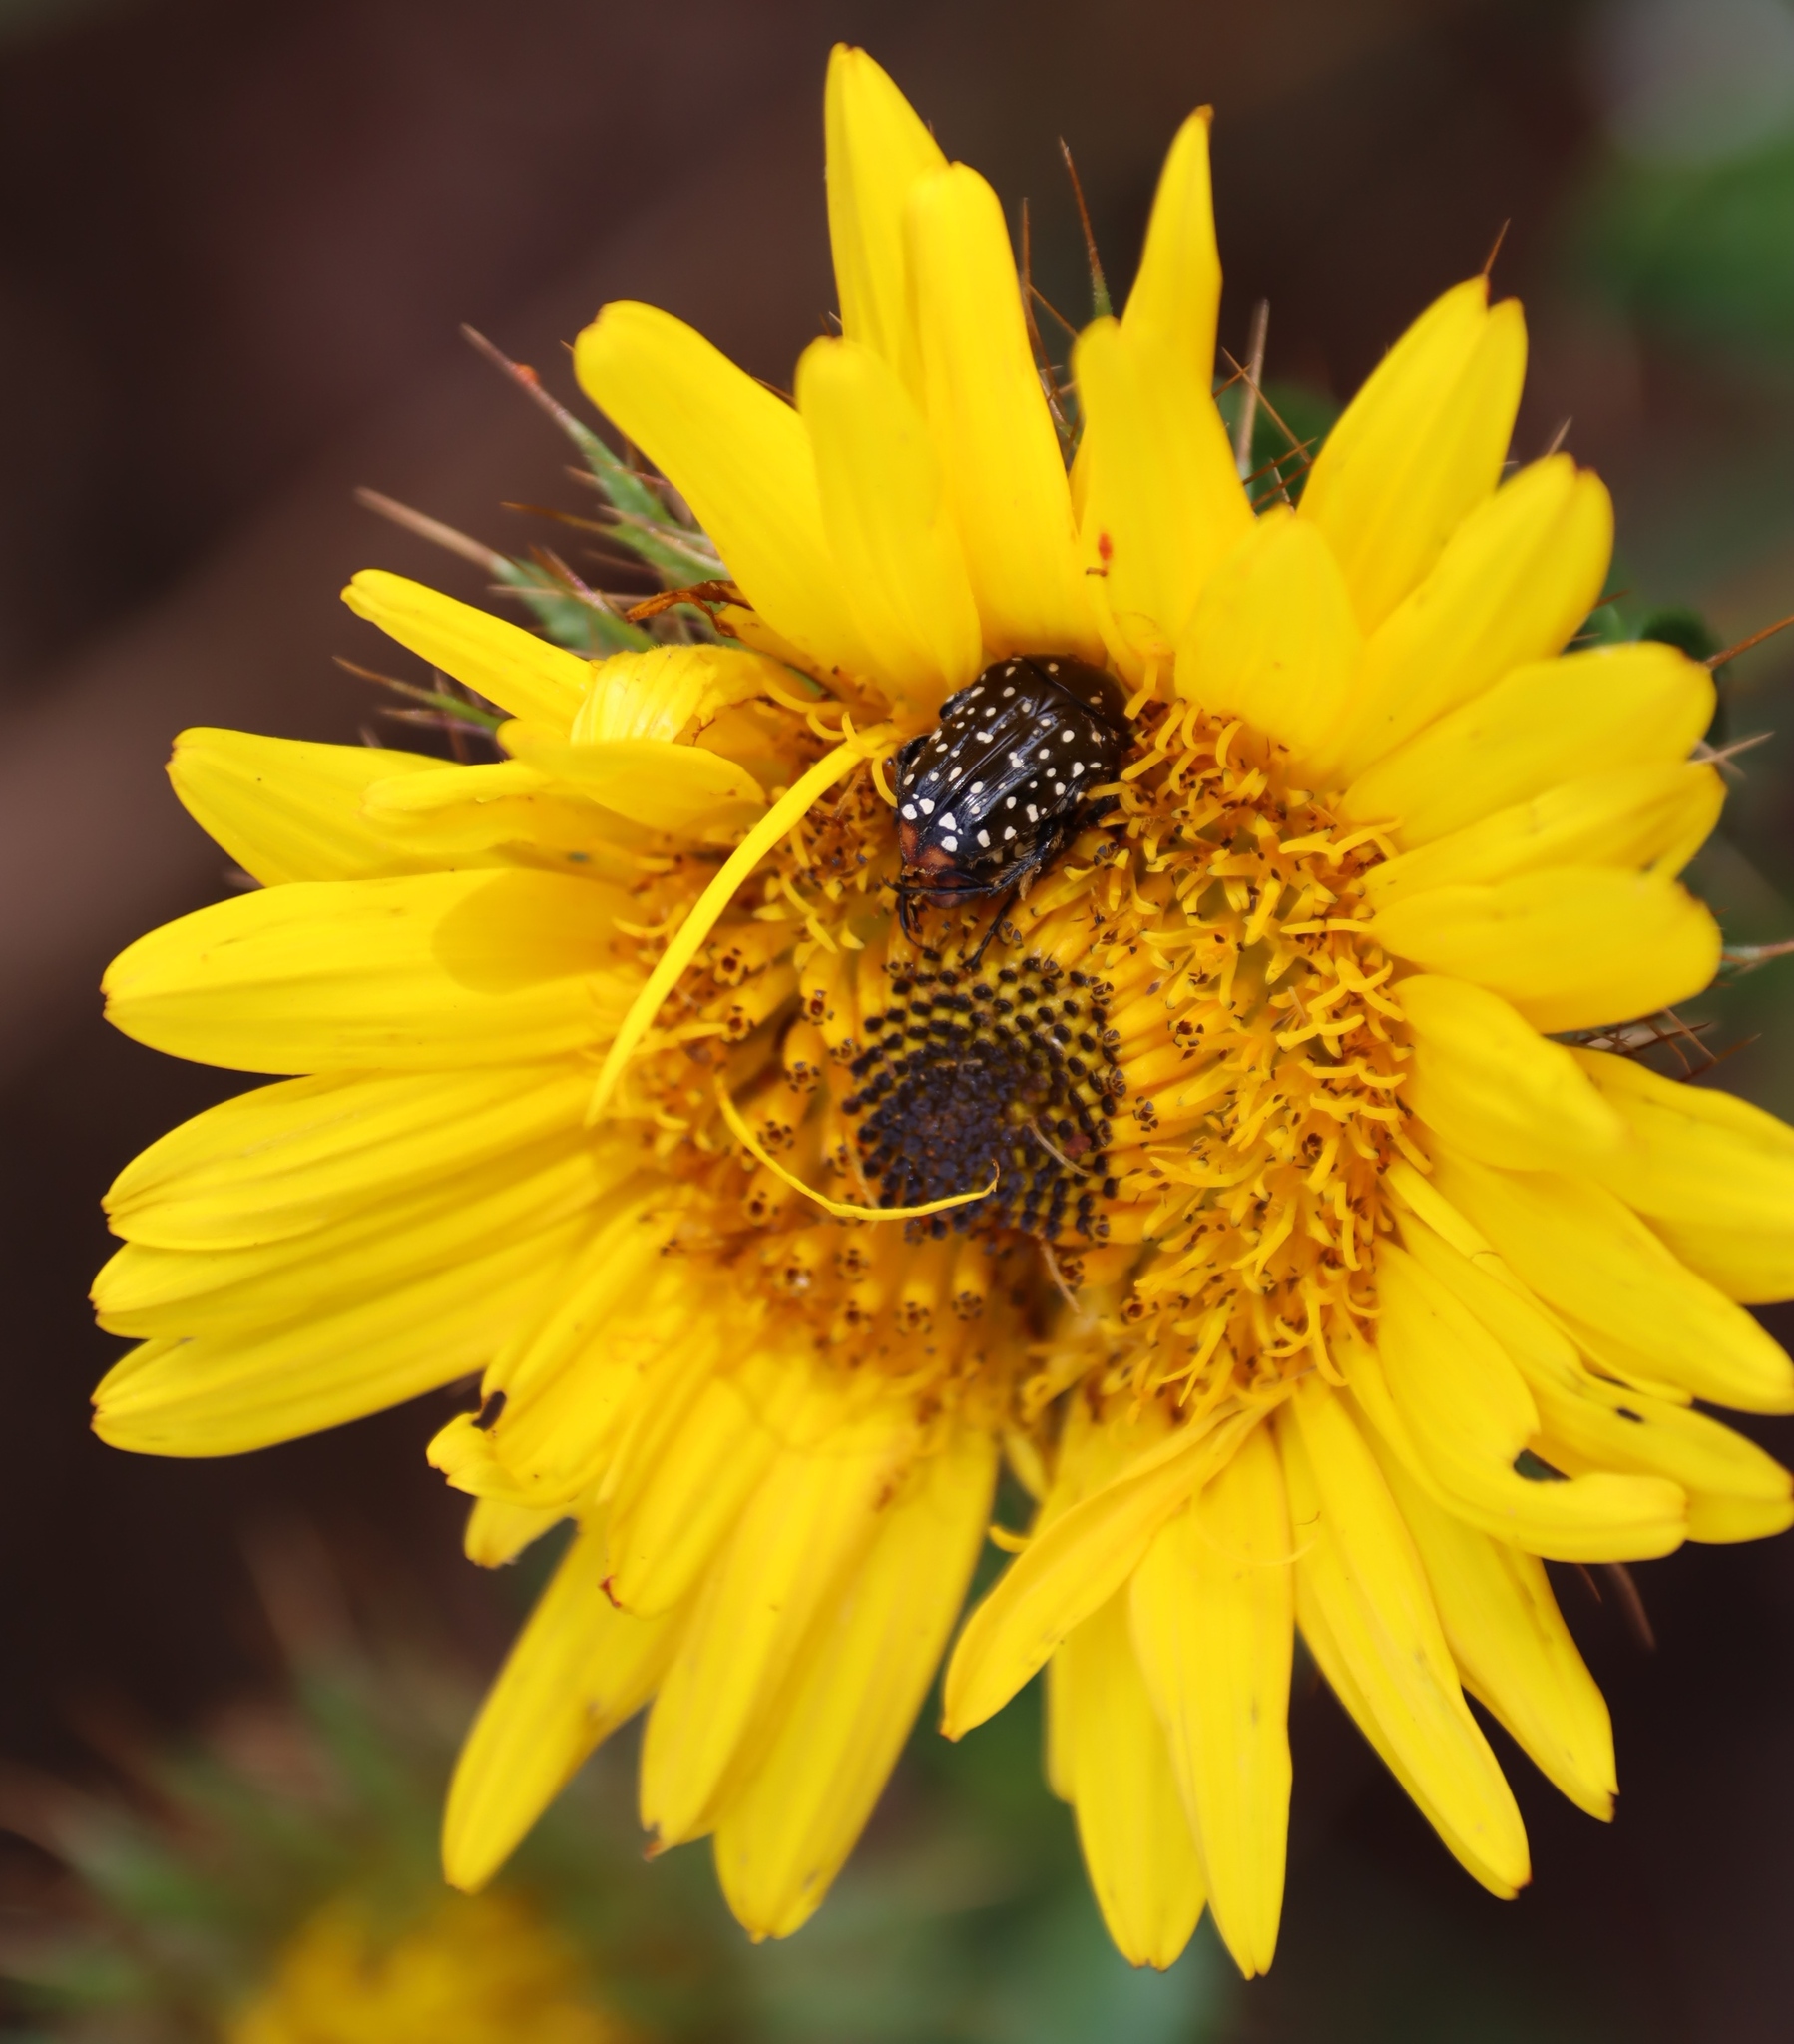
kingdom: Plantae
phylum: Tracheophyta
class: Magnoliopsida
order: Asterales
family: Asteraceae
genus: Berkheya
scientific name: Berkheya insignis
